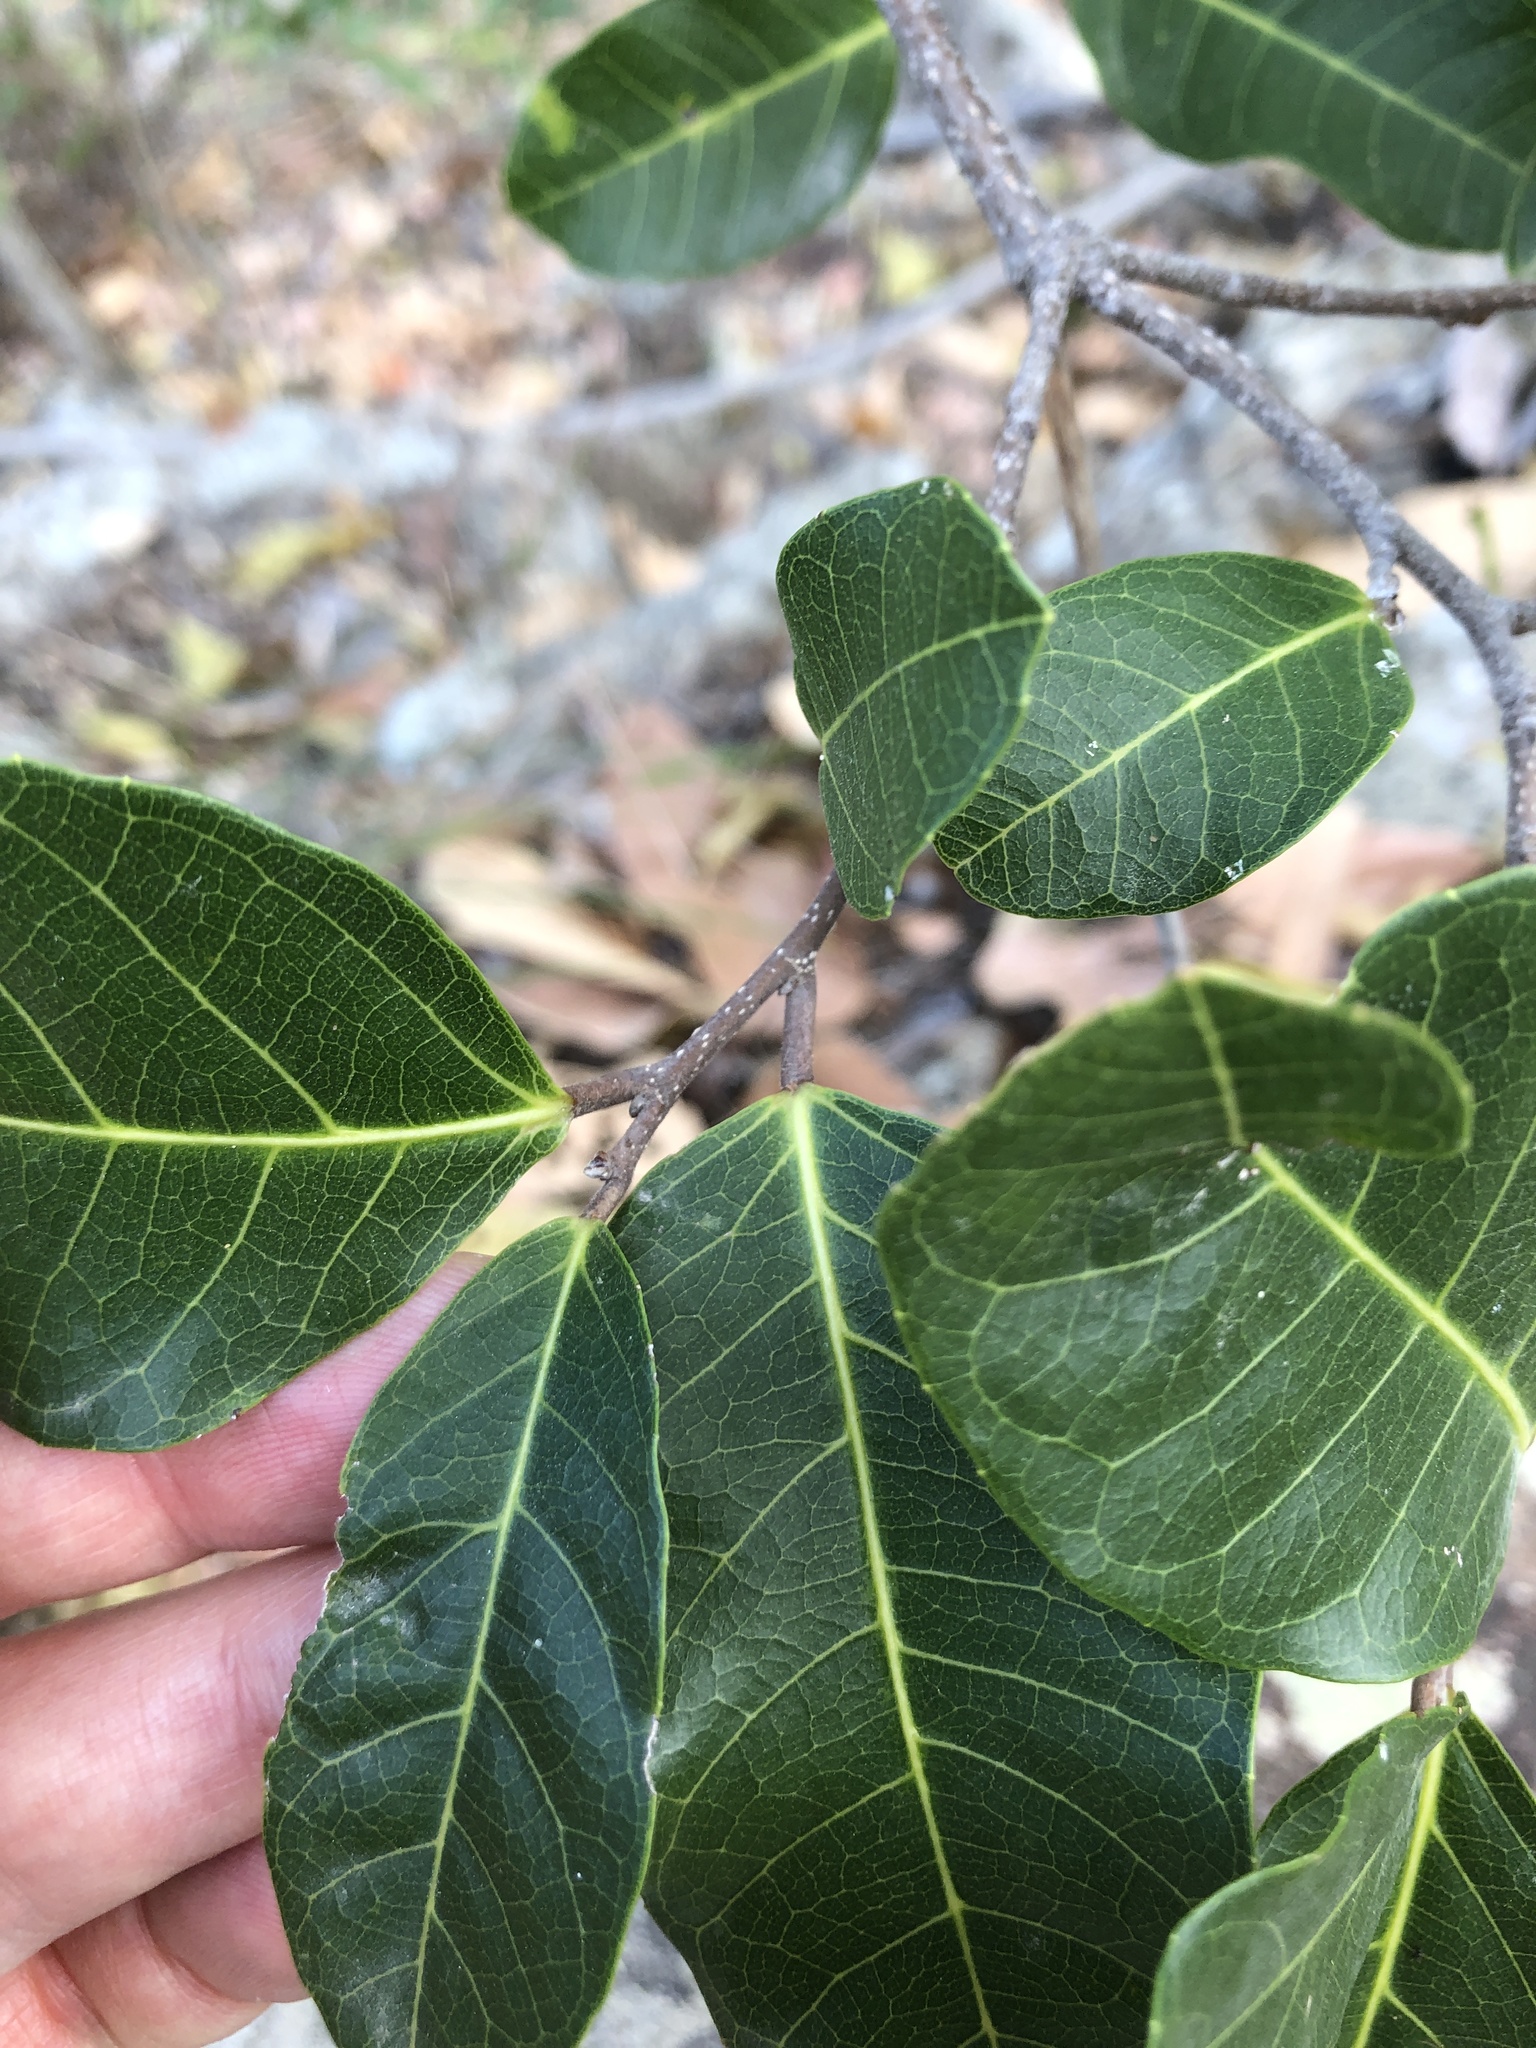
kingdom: Plantae
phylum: Tracheophyta
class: Magnoliopsida
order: Rosales
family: Moraceae
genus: Malaisia
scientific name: Malaisia scandens
